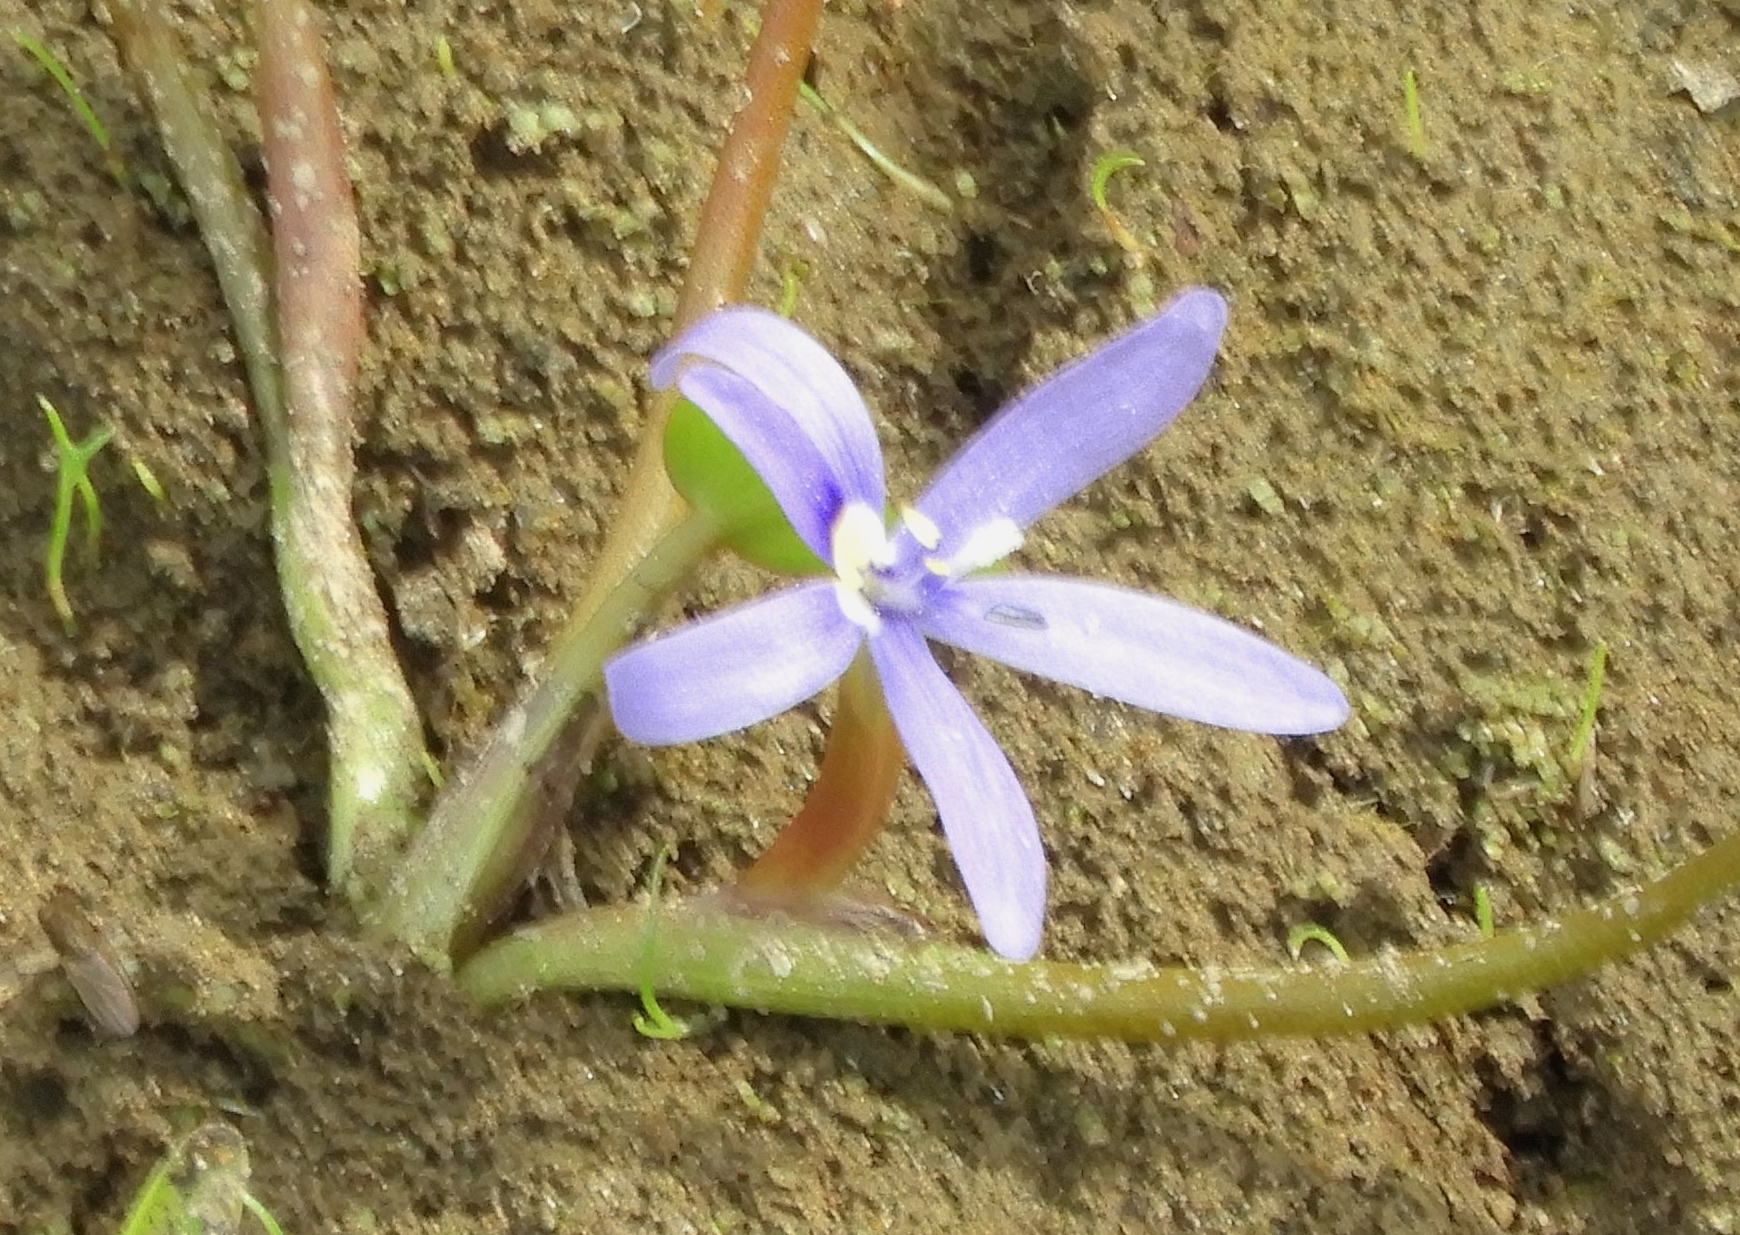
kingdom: Plantae
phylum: Tracheophyta
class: Liliopsida
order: Commelinales
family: Pontederiaceae
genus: Heteranthera
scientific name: Heteranthera limosa
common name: Blue mud-plantain
